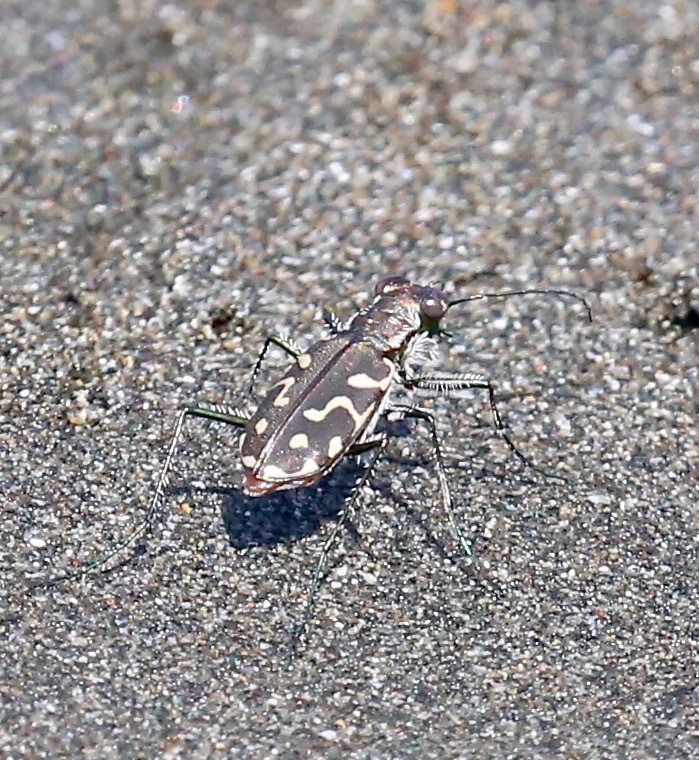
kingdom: Animalia
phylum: Arthropoda
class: Insecta
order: Coleoptera
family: Carabidae
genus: Cicindela
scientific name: Cicindela carthagena
